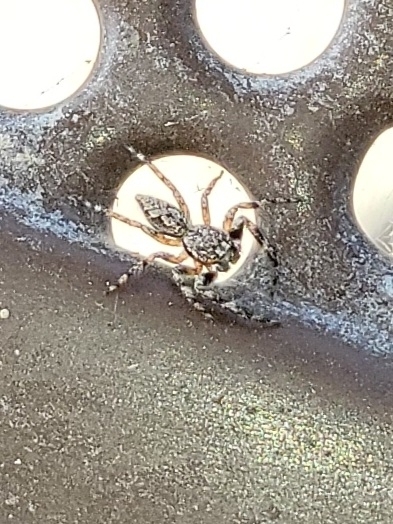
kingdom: Animalia
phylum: Arthropoda
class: Arachnida
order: Araneae
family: Salticidae
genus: Platycryptus
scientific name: Platycryptus undatus
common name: Tan jumping spider
